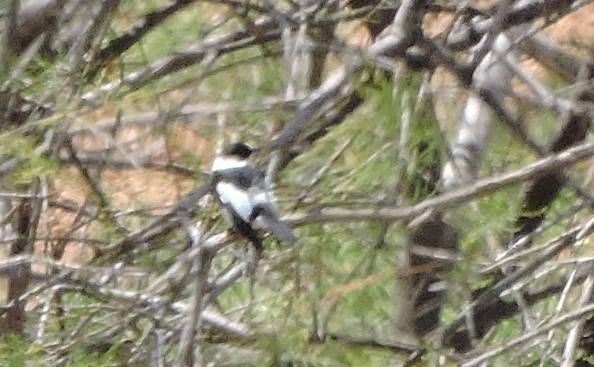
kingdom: Animalia
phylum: Chordata
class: Aves
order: Passeriformes
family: Muscicapidae
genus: Ficedula
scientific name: Ficedula albicollis
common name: Collared flycatcher
